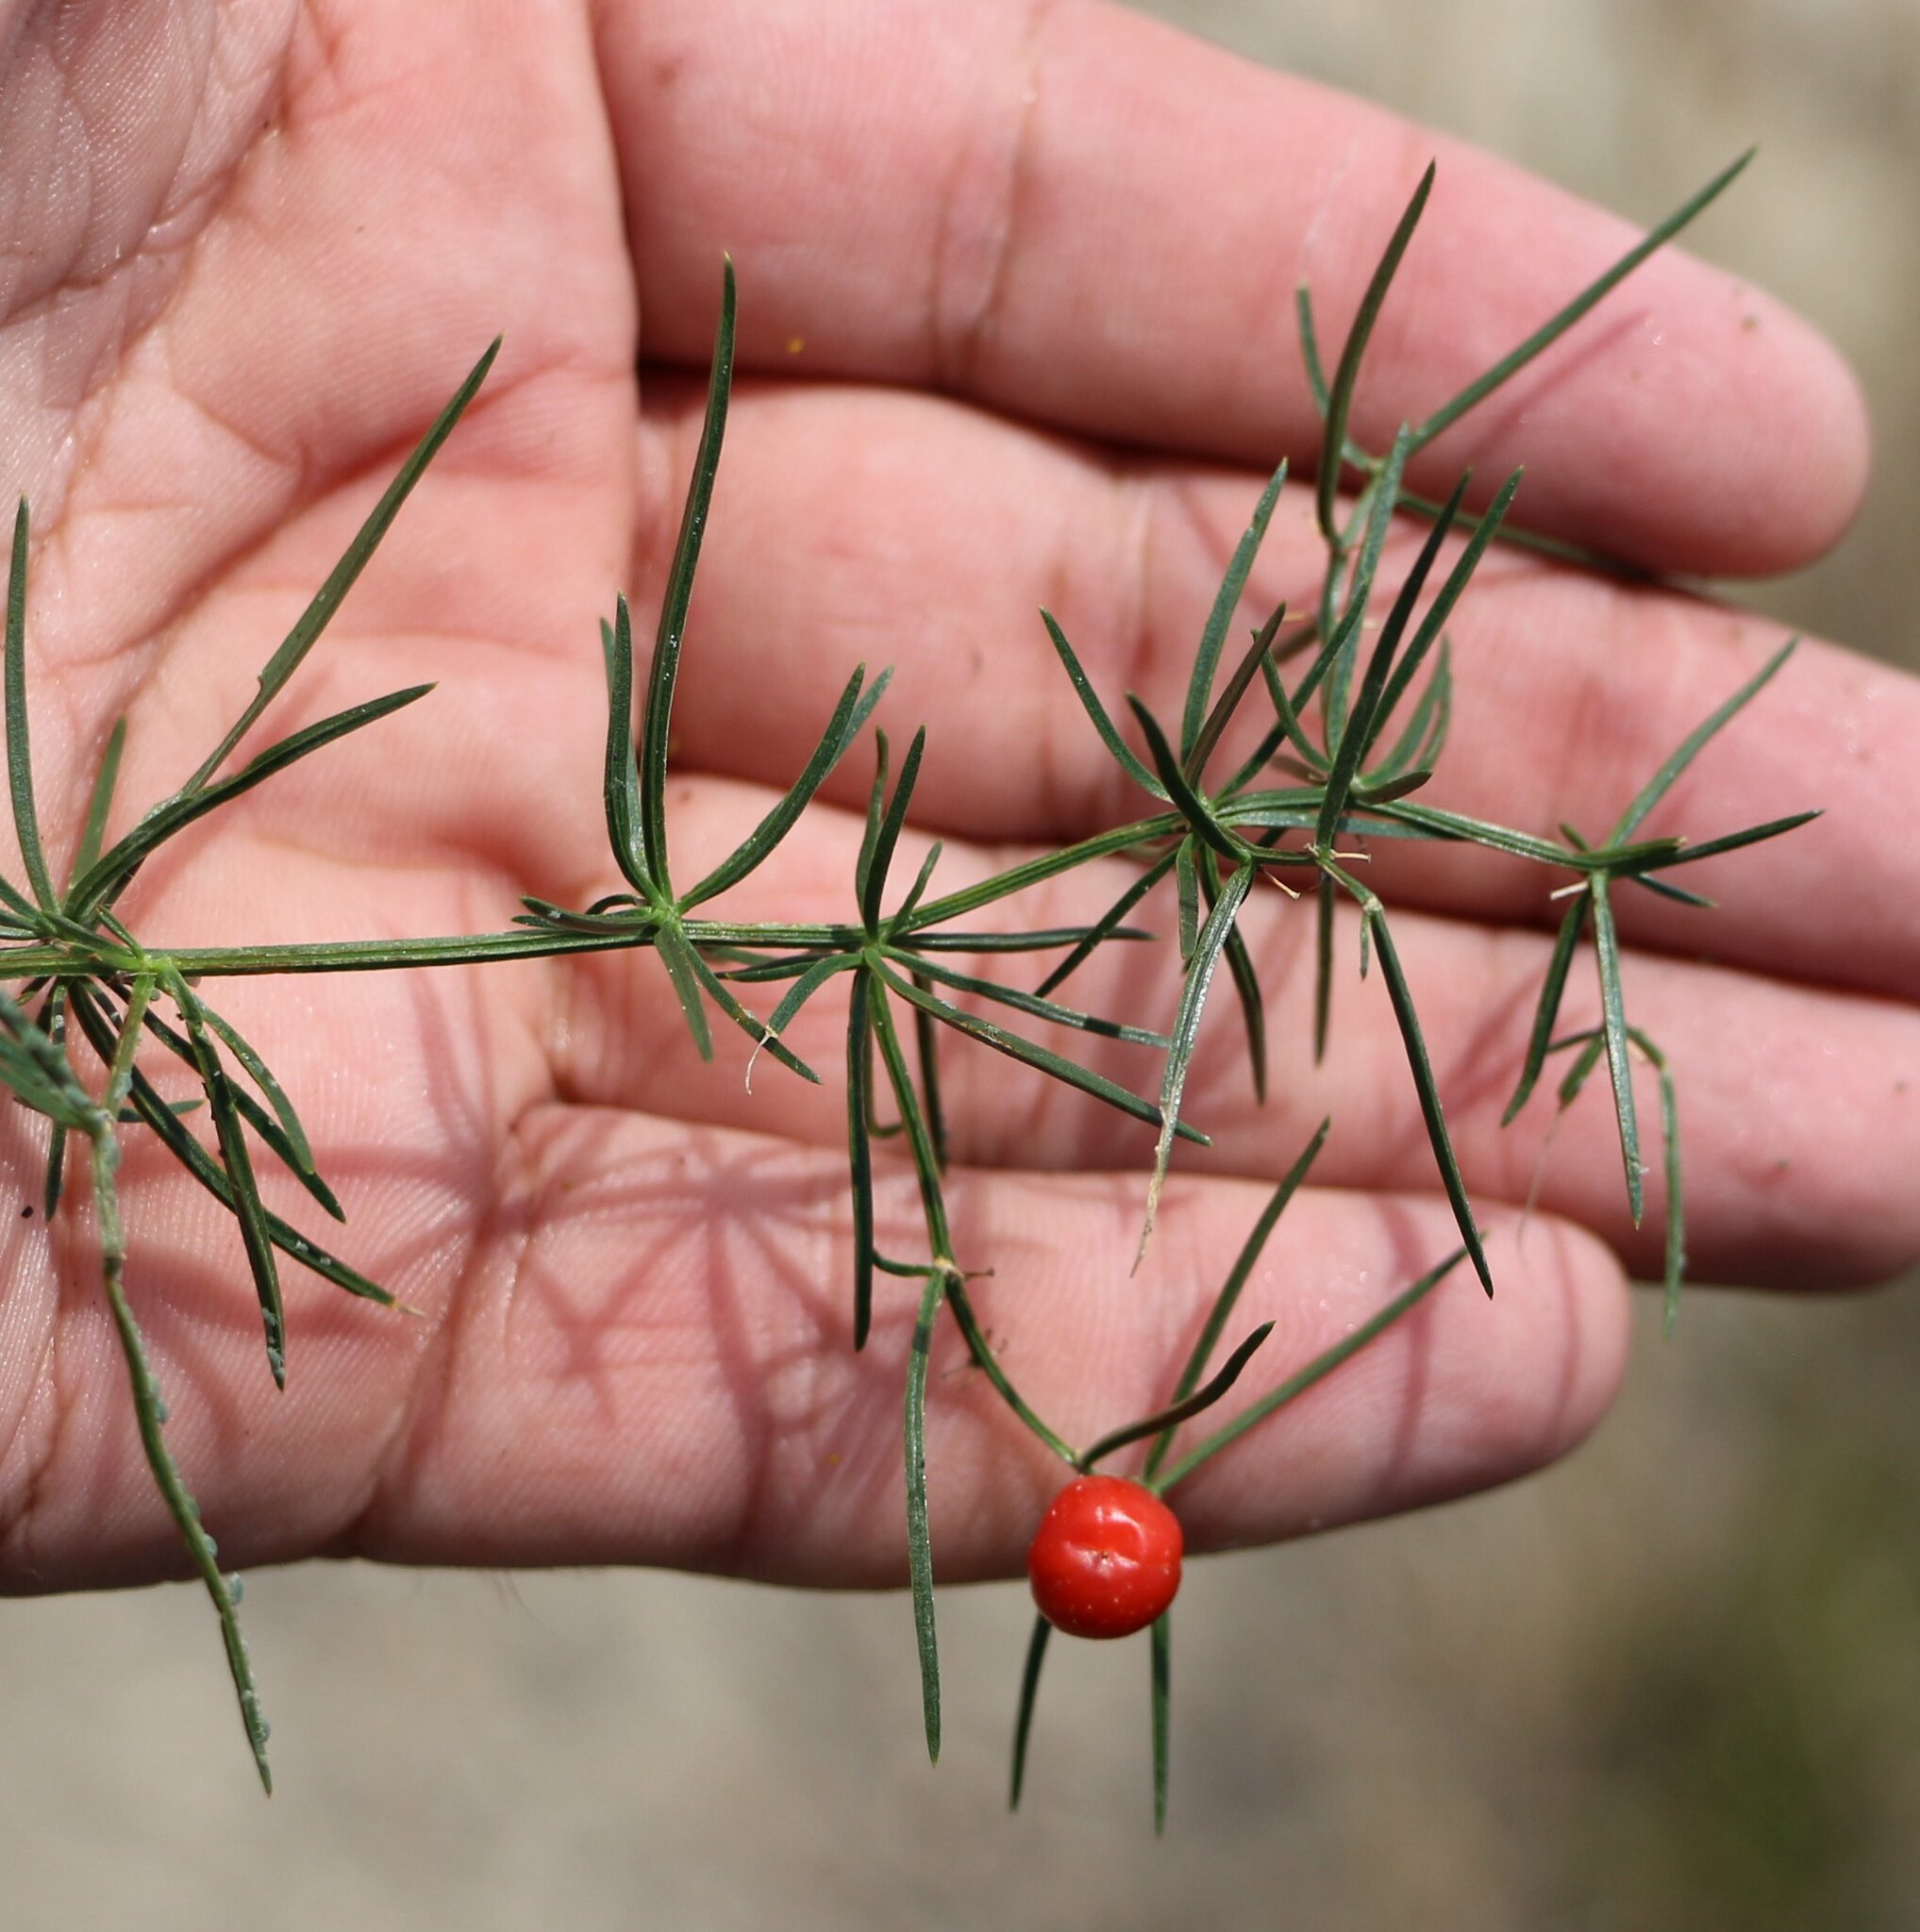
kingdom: Plantae
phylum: Tracheophyta
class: Liliopsida
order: Asparagales
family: Asparagaceae
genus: Asparagus
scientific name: Asparagus verticillatus
